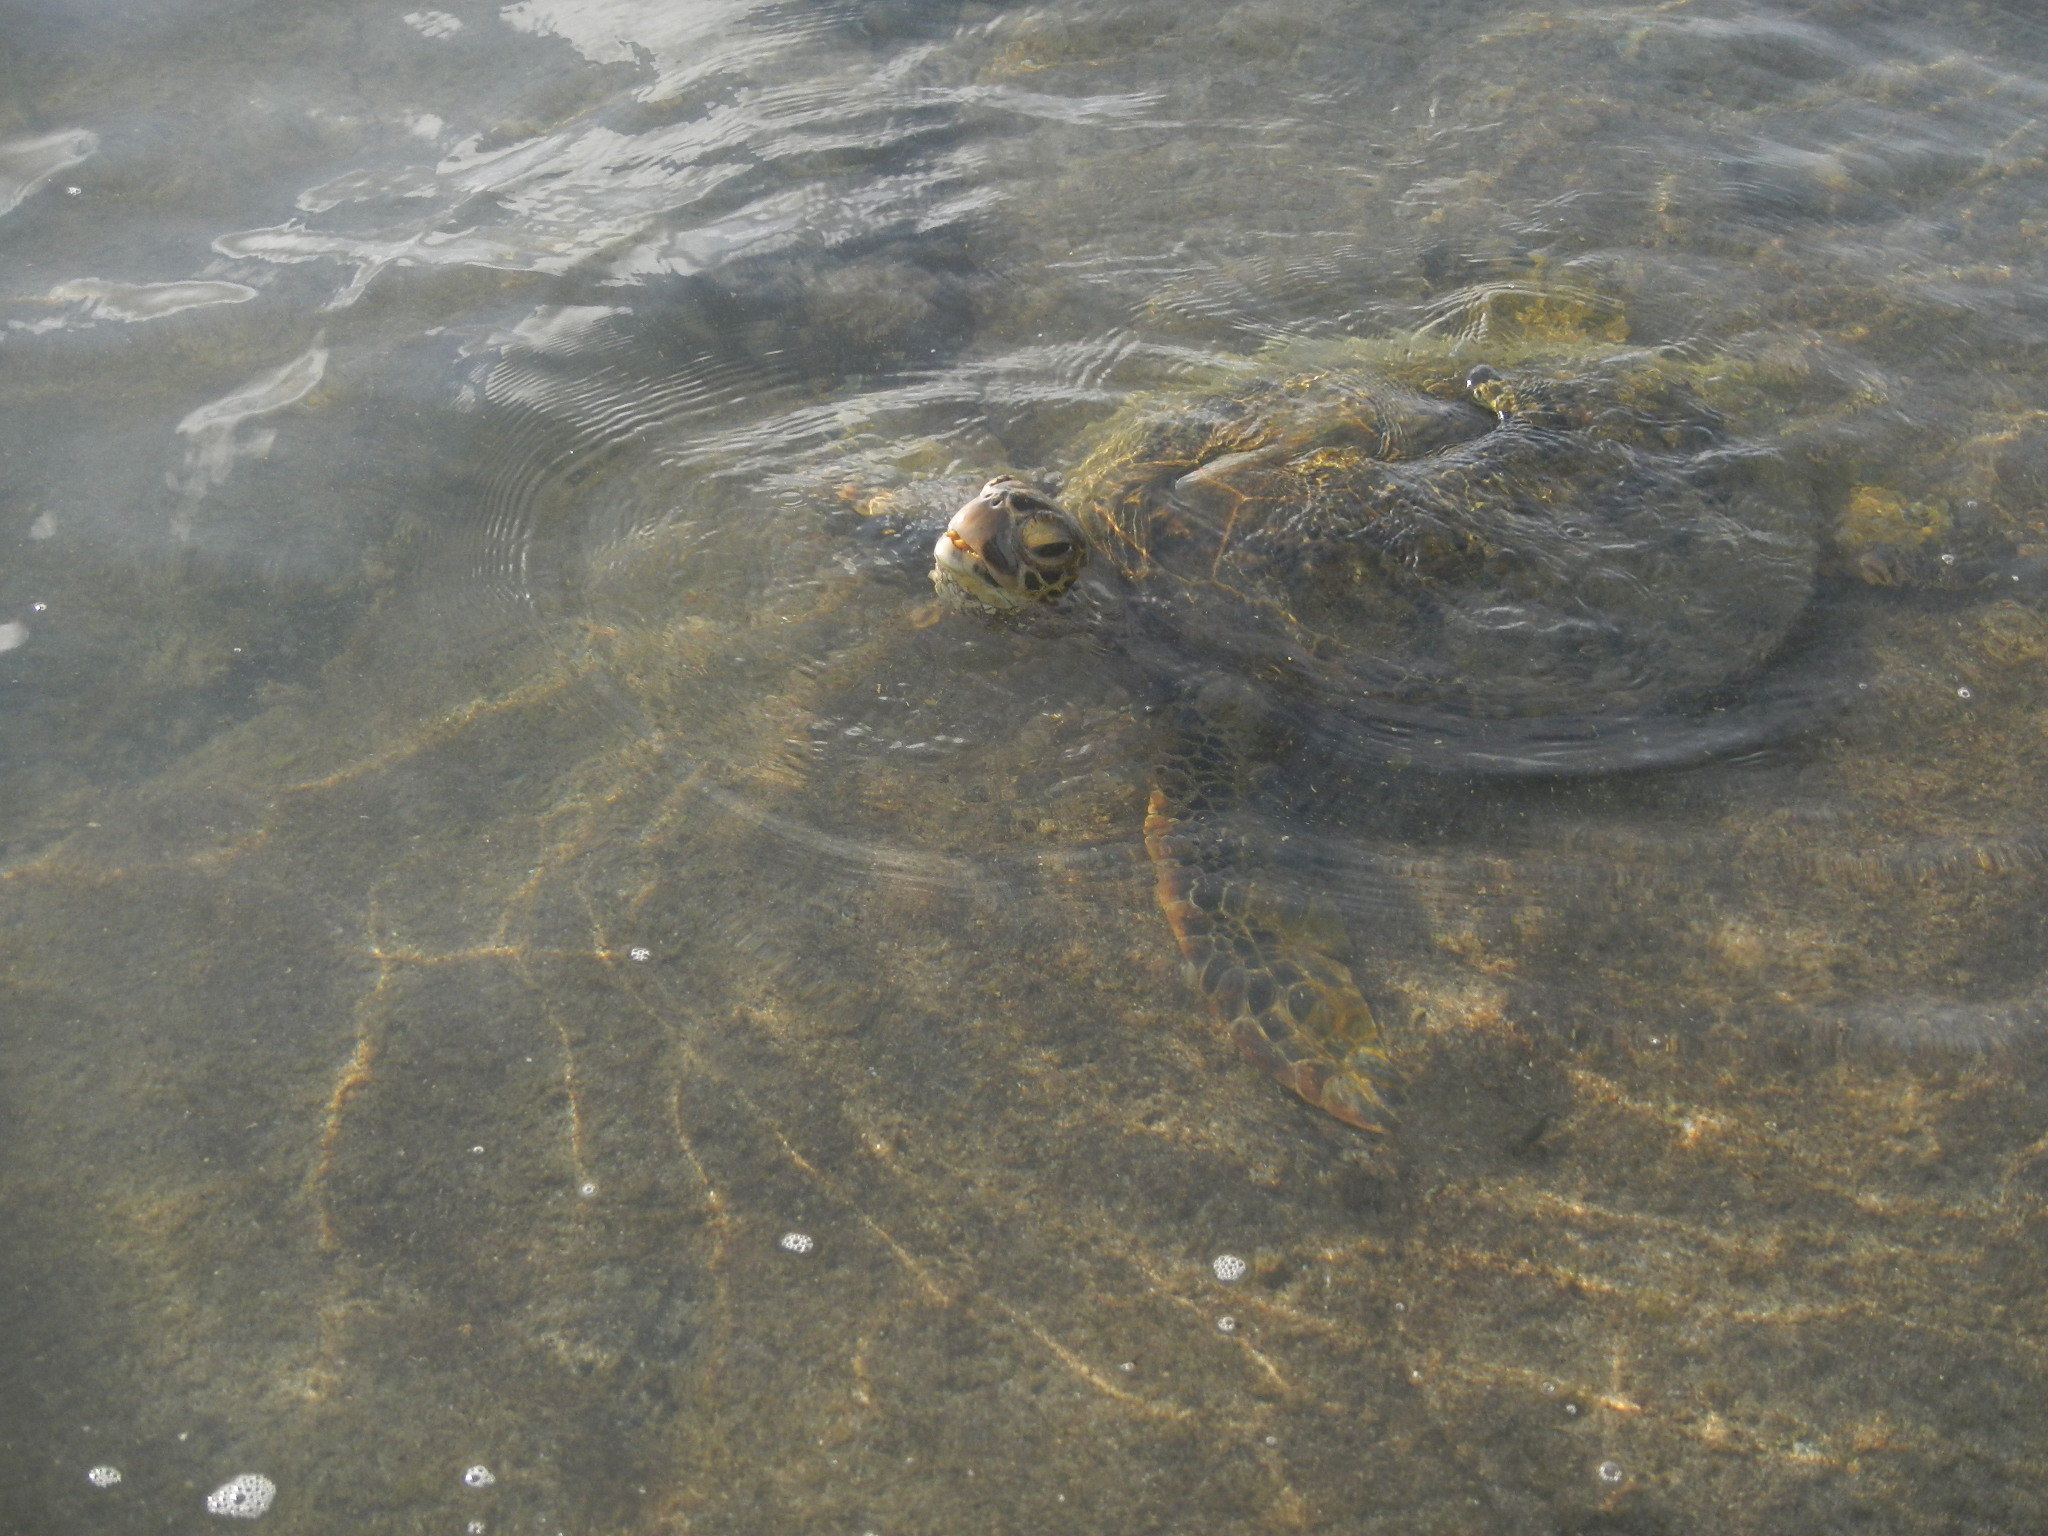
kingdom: Animalia
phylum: Chordata
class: Testudines
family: Cheloniidae
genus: Chelonia
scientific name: Chelonia mydas
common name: Green turtle
